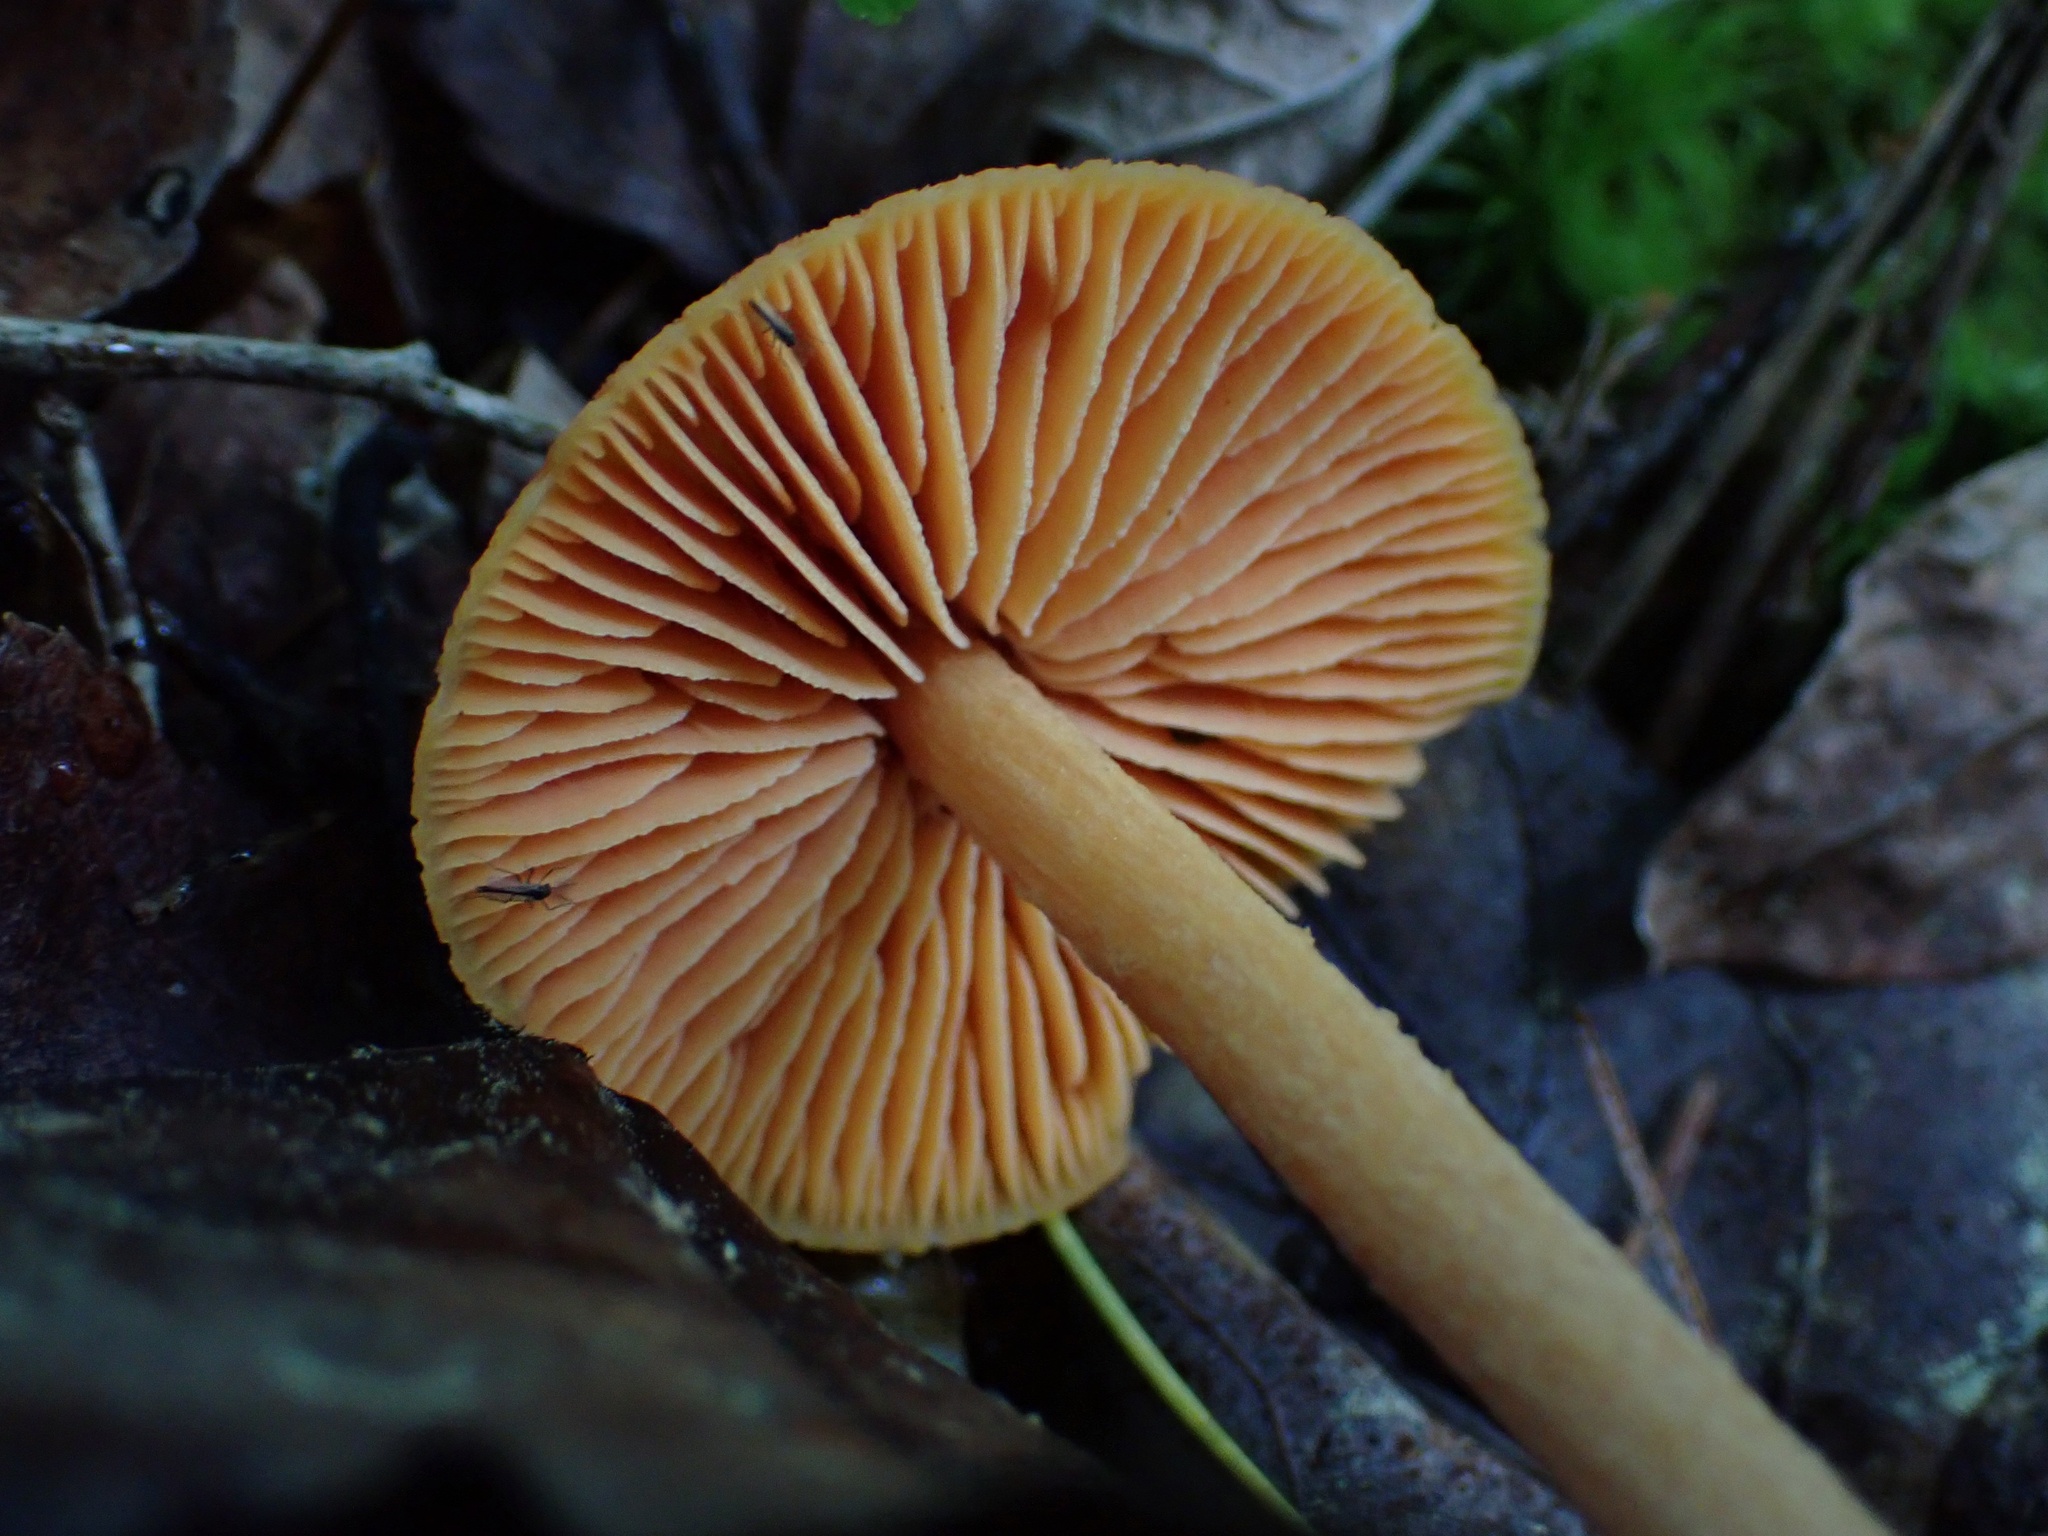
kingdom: Fungi
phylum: Basidiomycota
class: Agaricomycetes
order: Agaricales
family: Entolomataceae
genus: Entoloma
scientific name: Entoloma quadratum
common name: Salmon pinkgill
